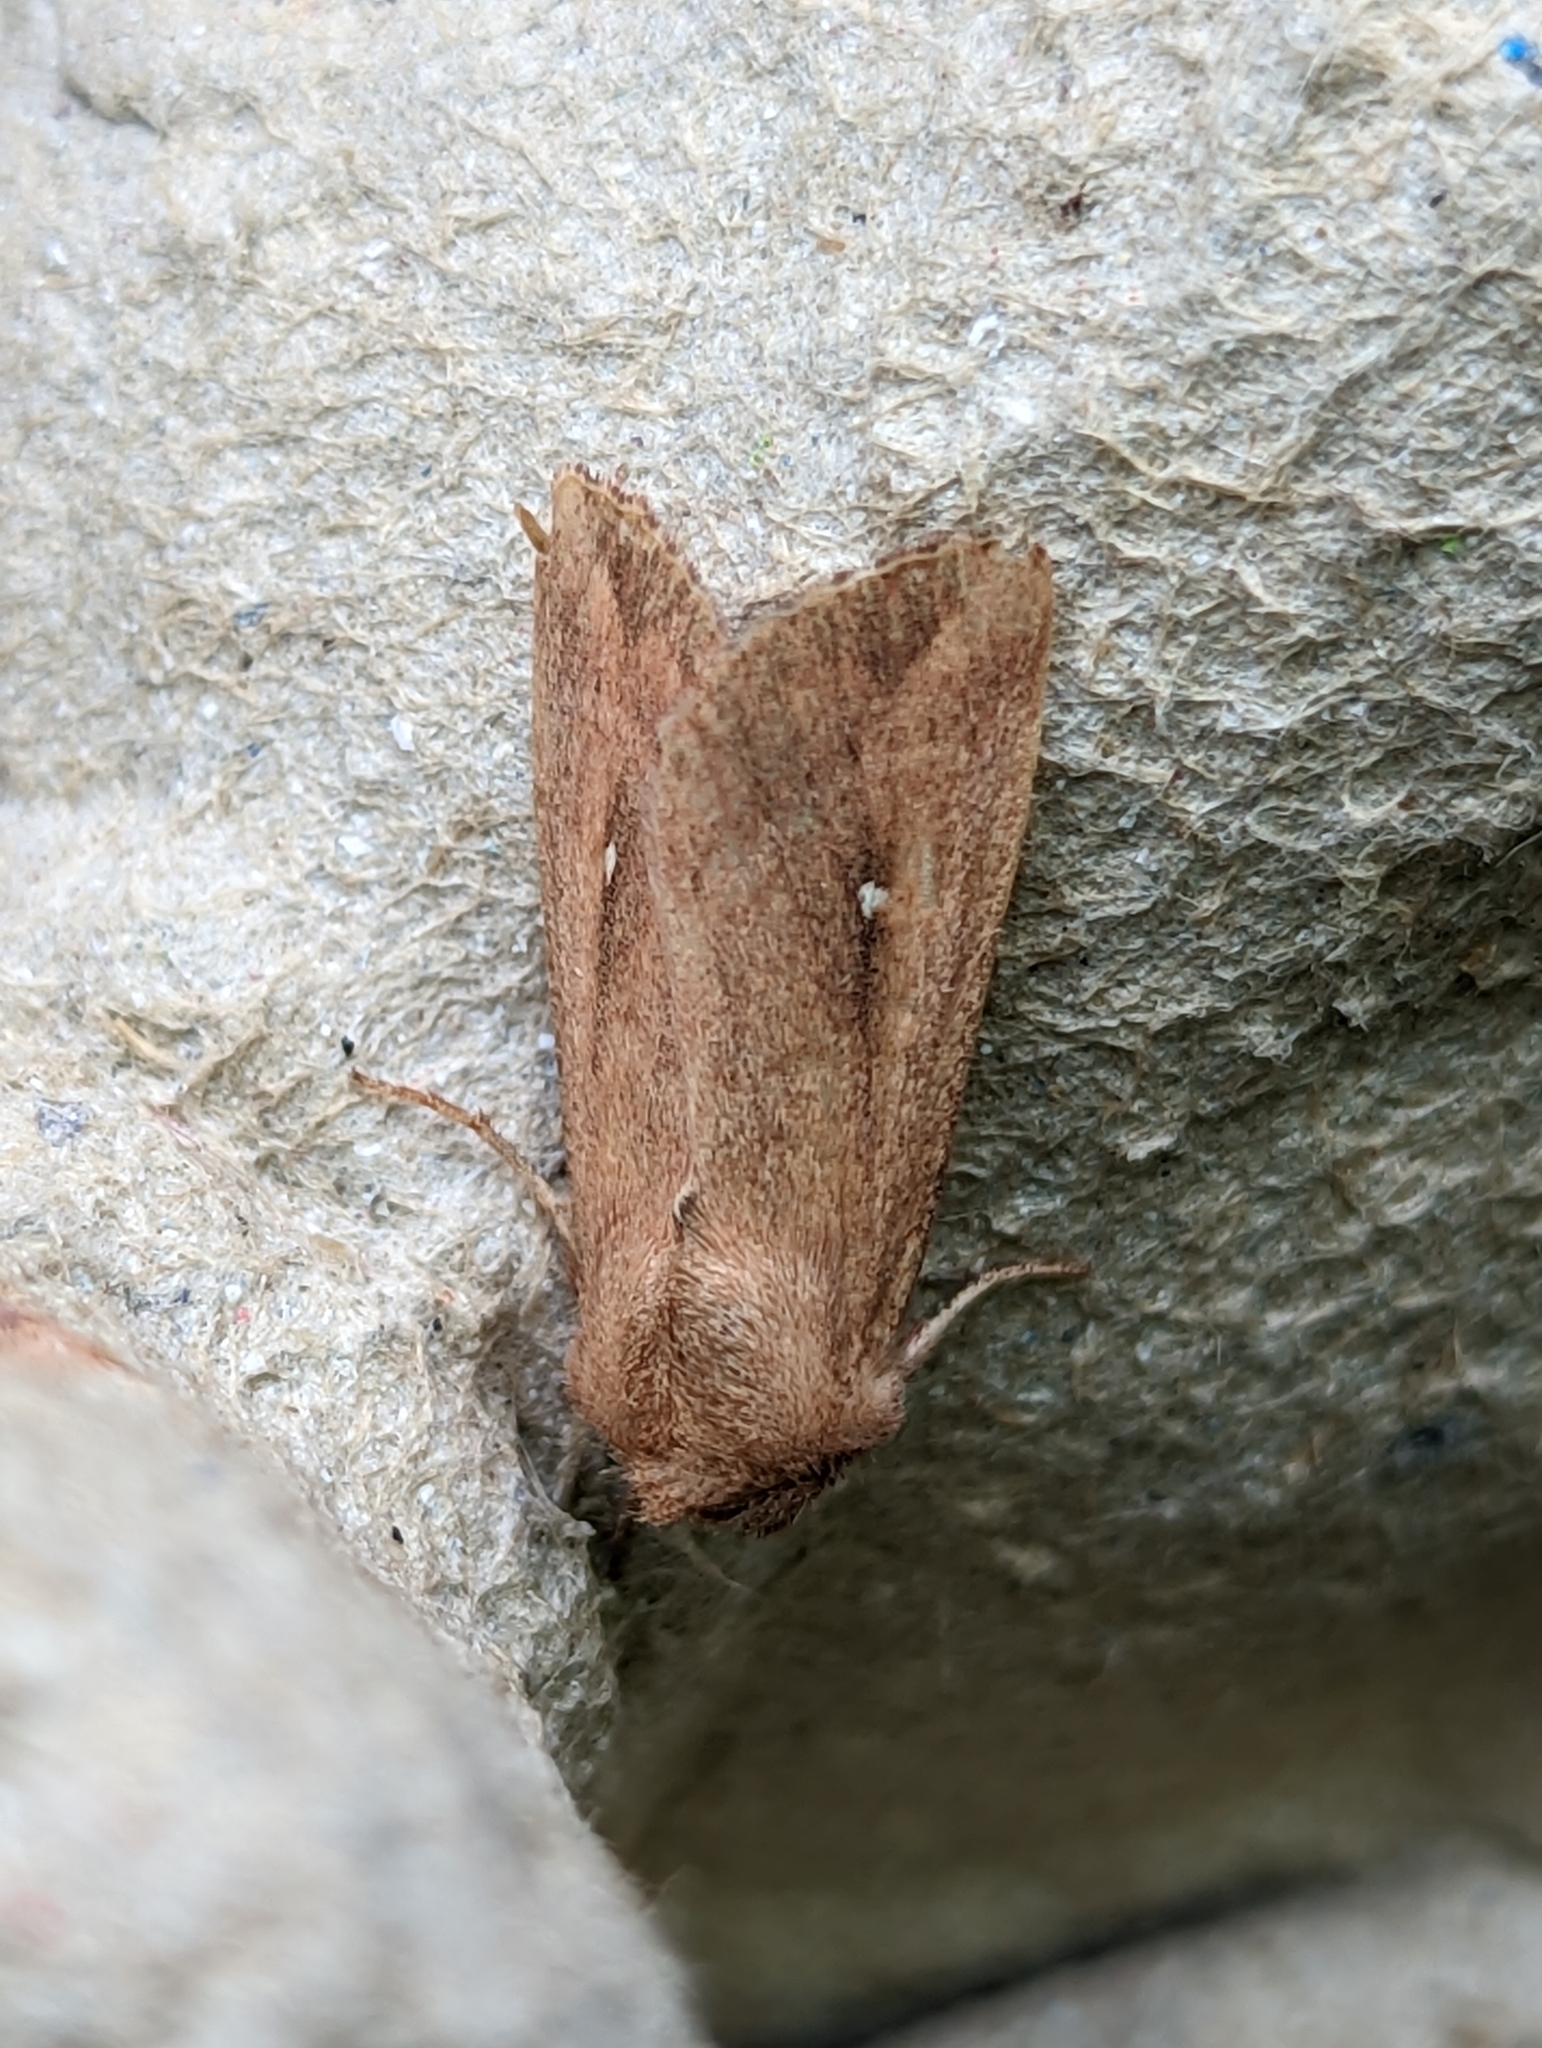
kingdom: Animalia
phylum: Arthropoda
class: Insecta
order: Lepidoptera
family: Noctuidae
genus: Mythimna
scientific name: Mythimna albipuncta
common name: White-point
